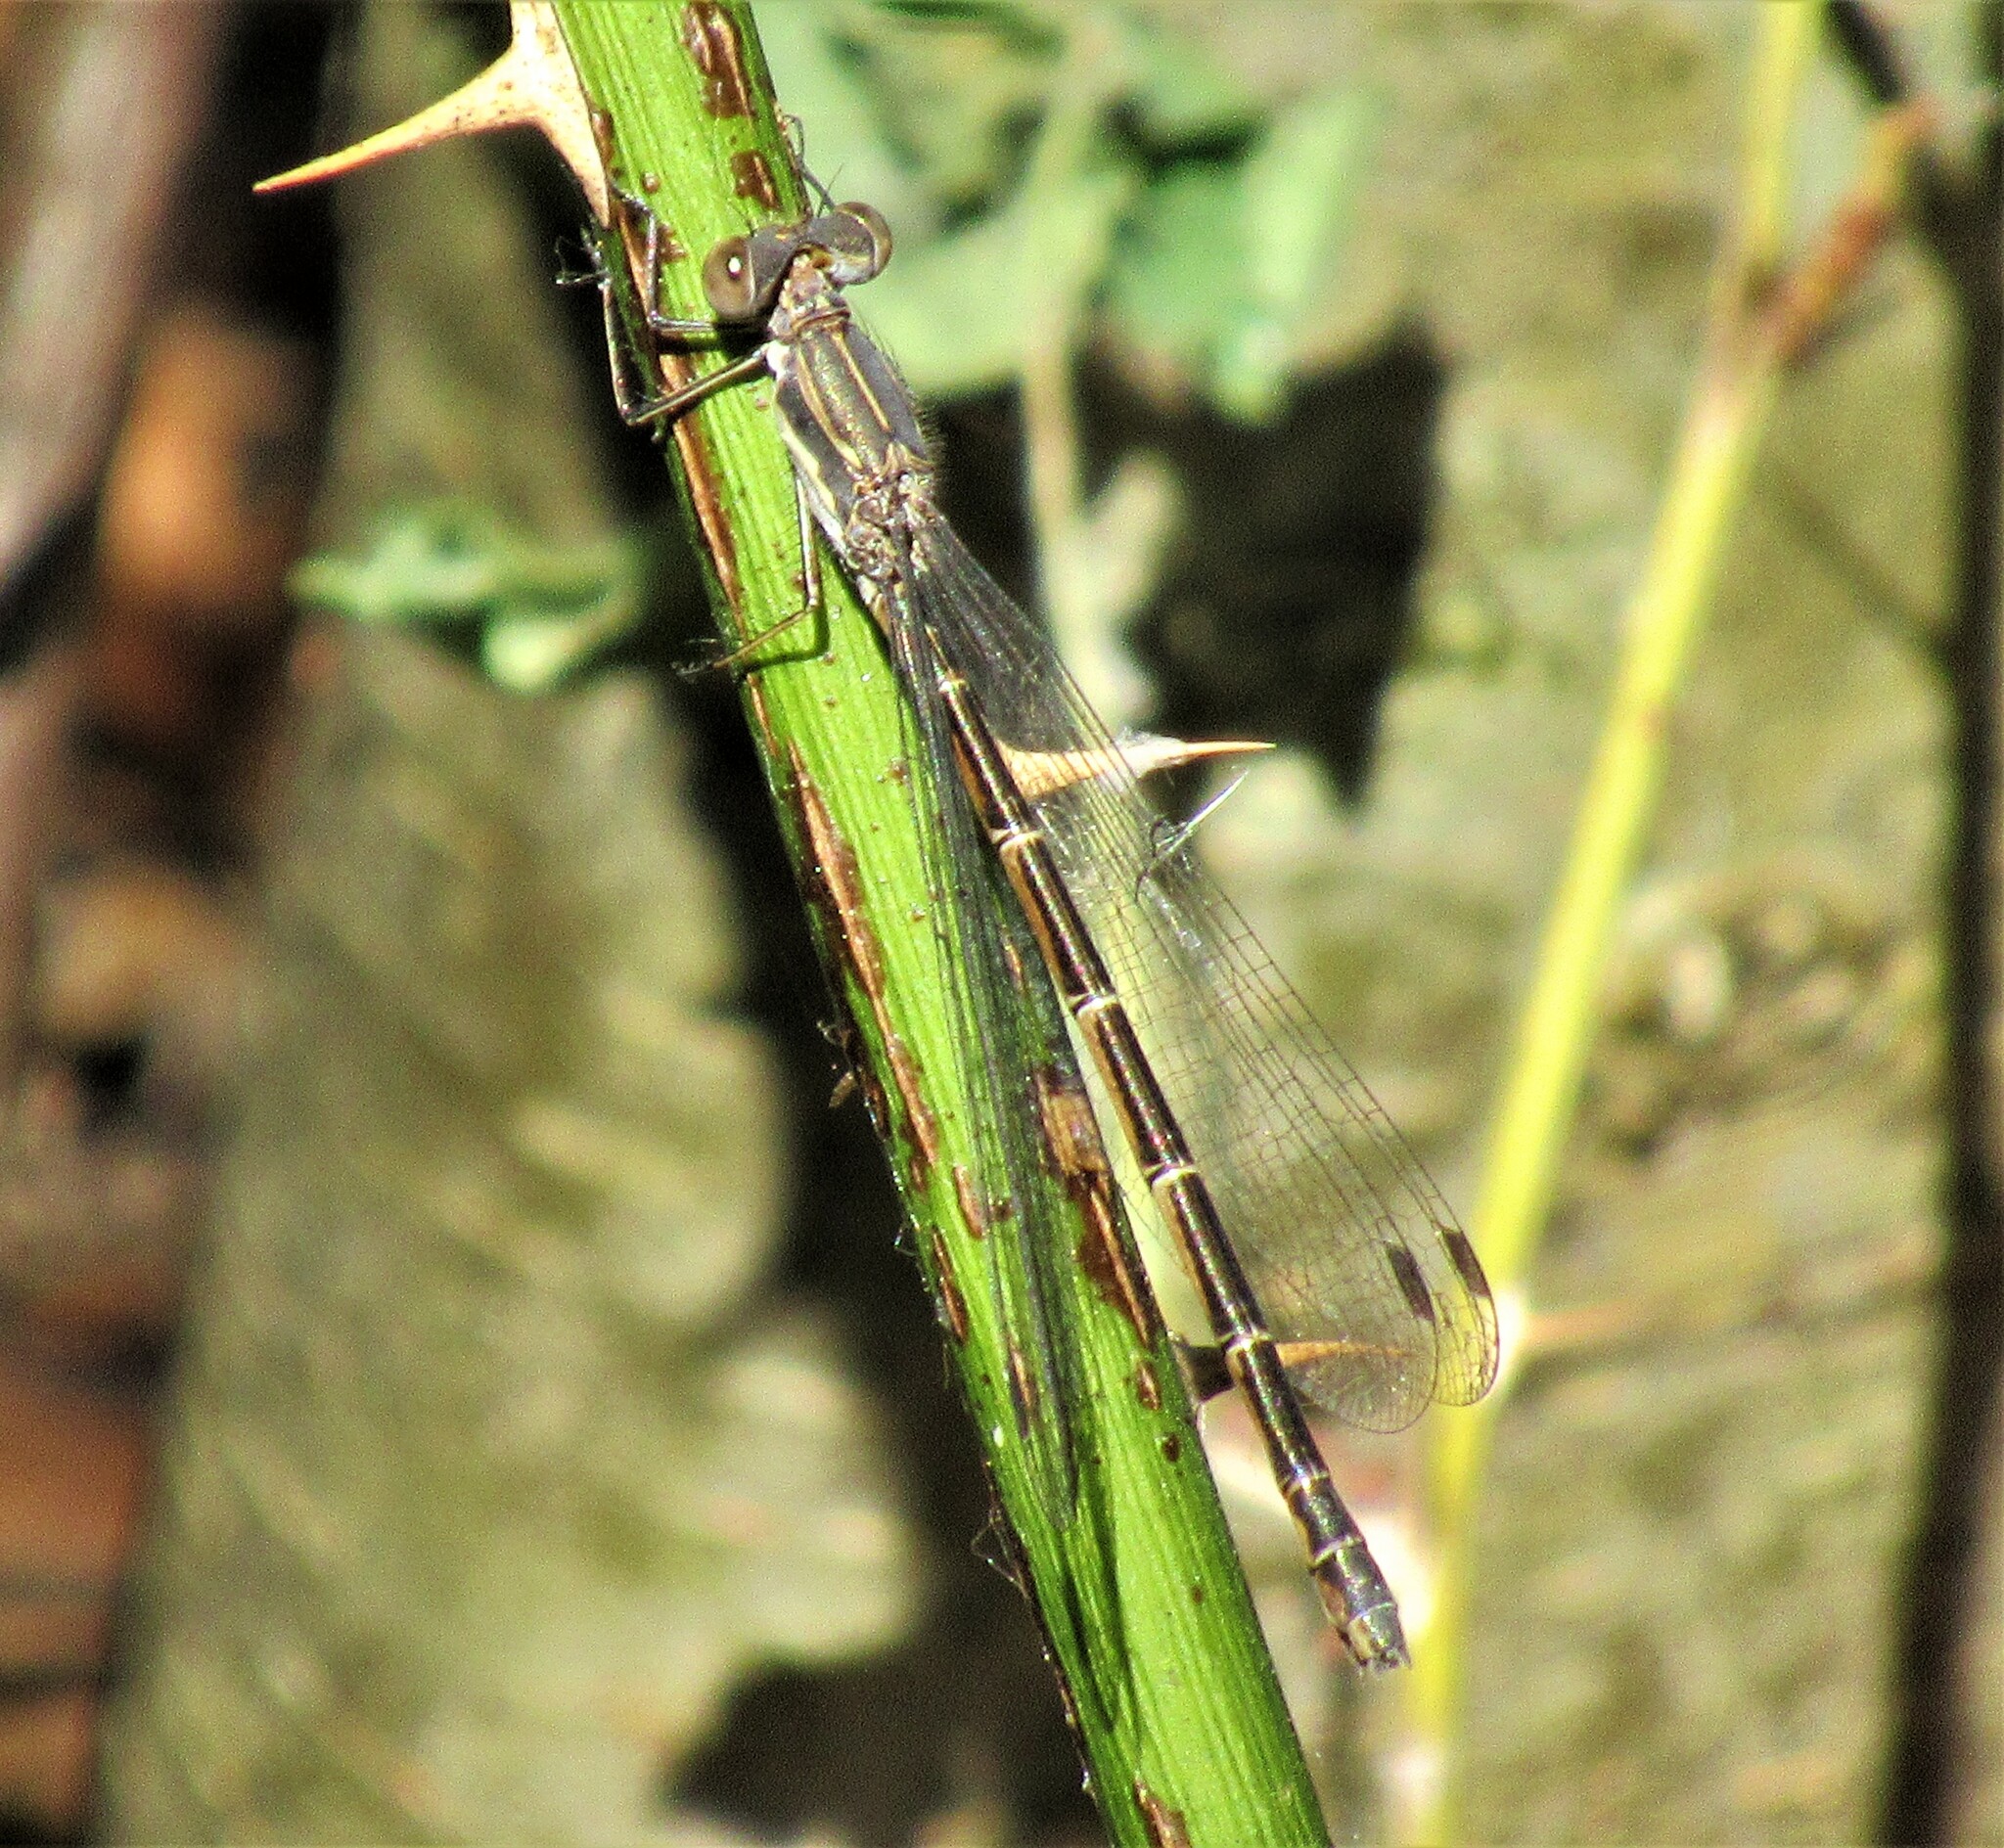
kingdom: Animalia
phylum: Arthropoda
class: Insecta
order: Odonata
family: Lestidae
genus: Lestes
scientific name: Lestes congener
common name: Spotted spreadwing
